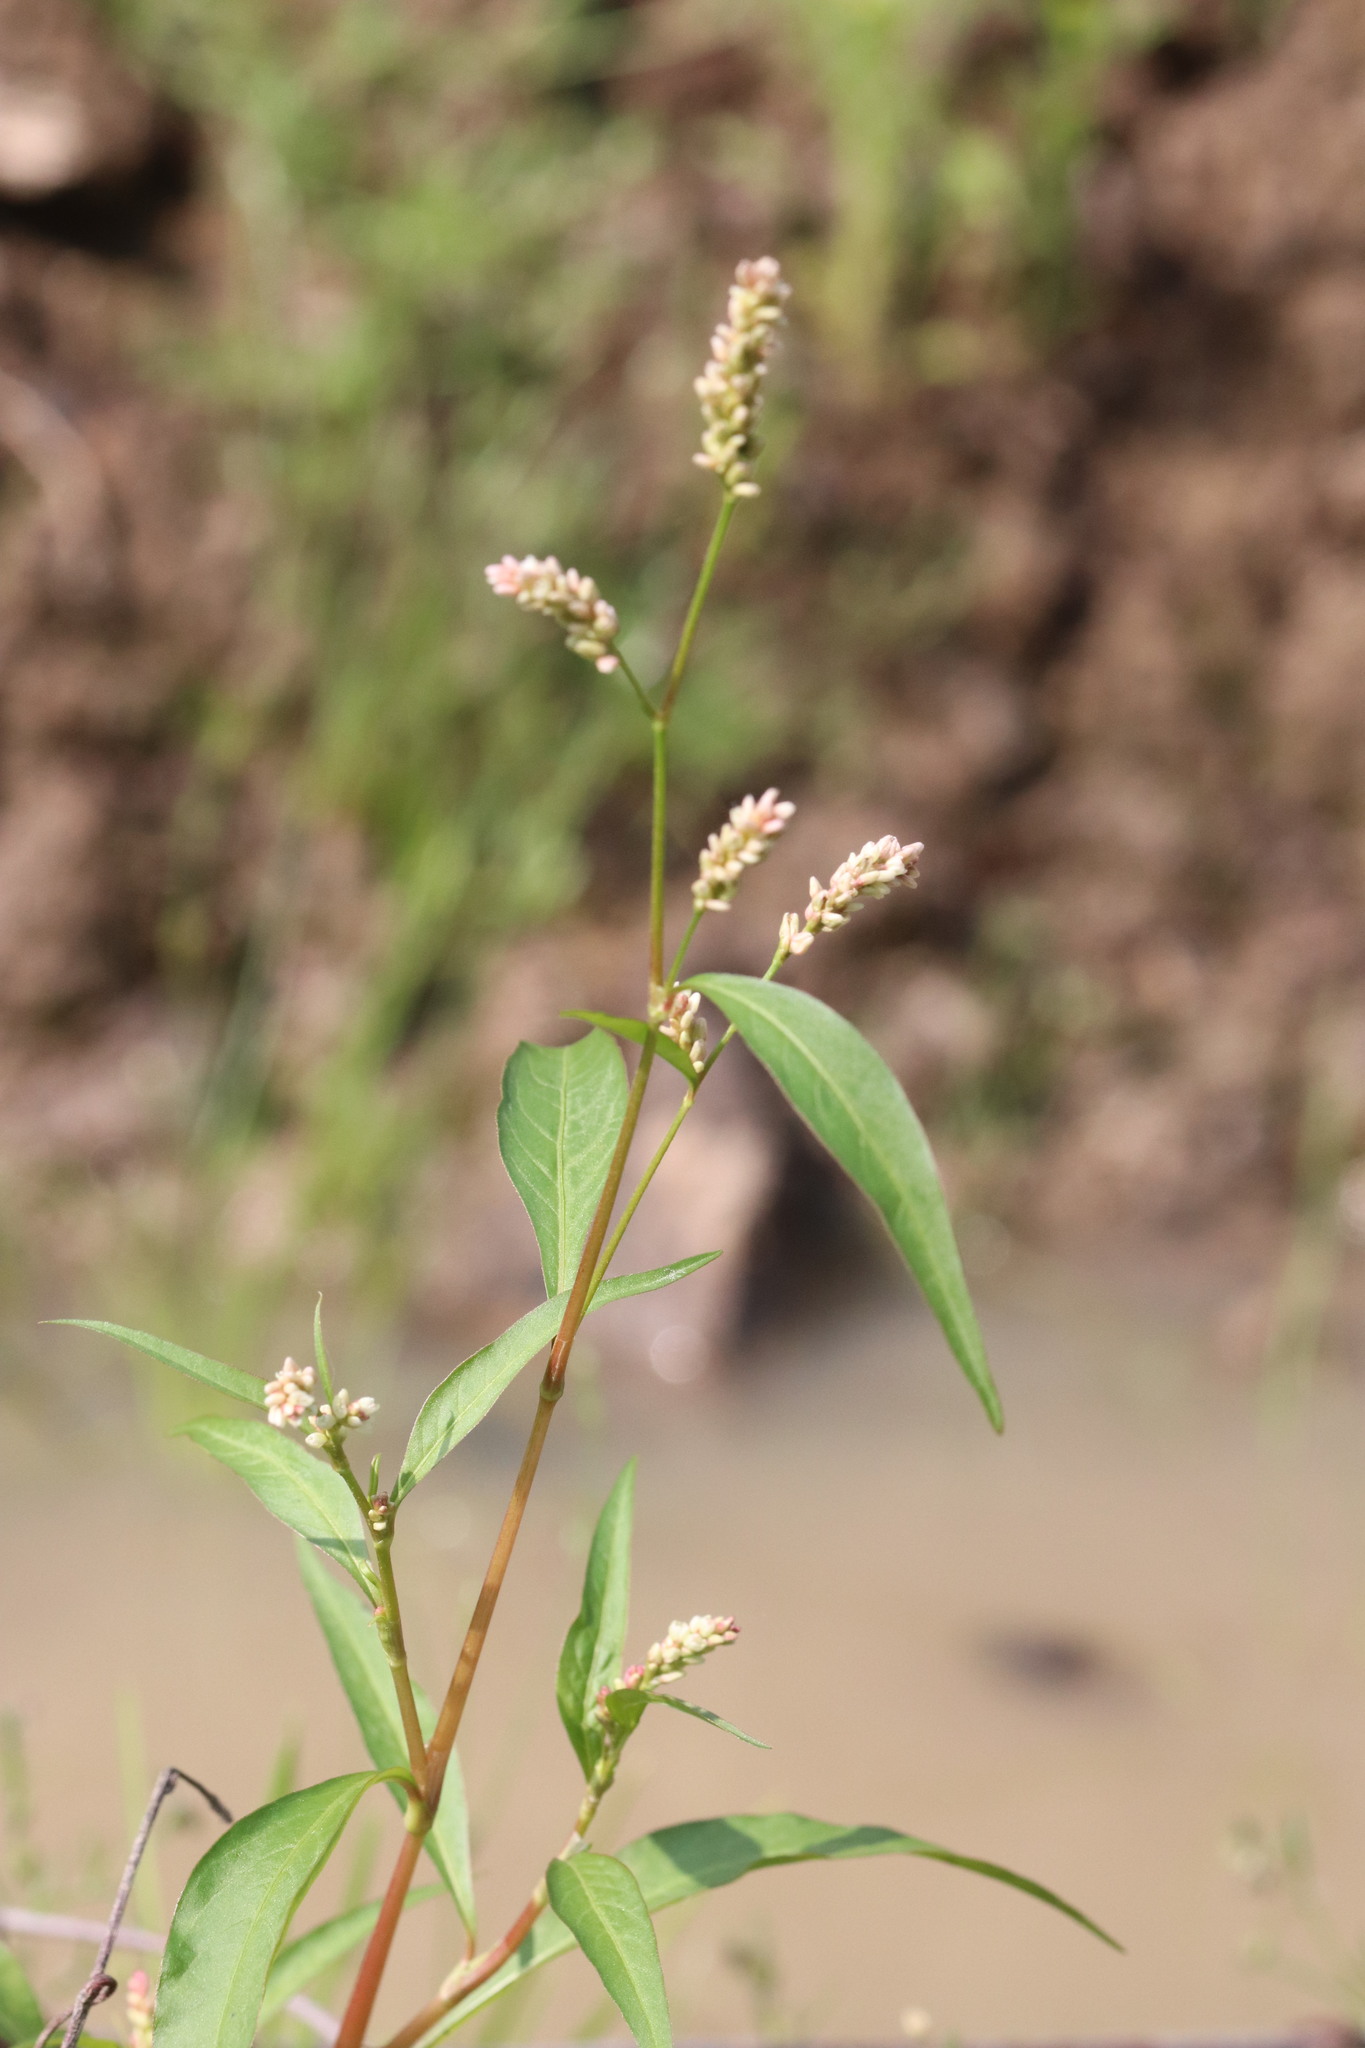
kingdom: Plantae
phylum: Tracheophyta
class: Magnoliopsida
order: Caryophyllales
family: Polygonaceae
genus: Persicaria
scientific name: Persicaria lapathifolia
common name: Curlytop knotweed
